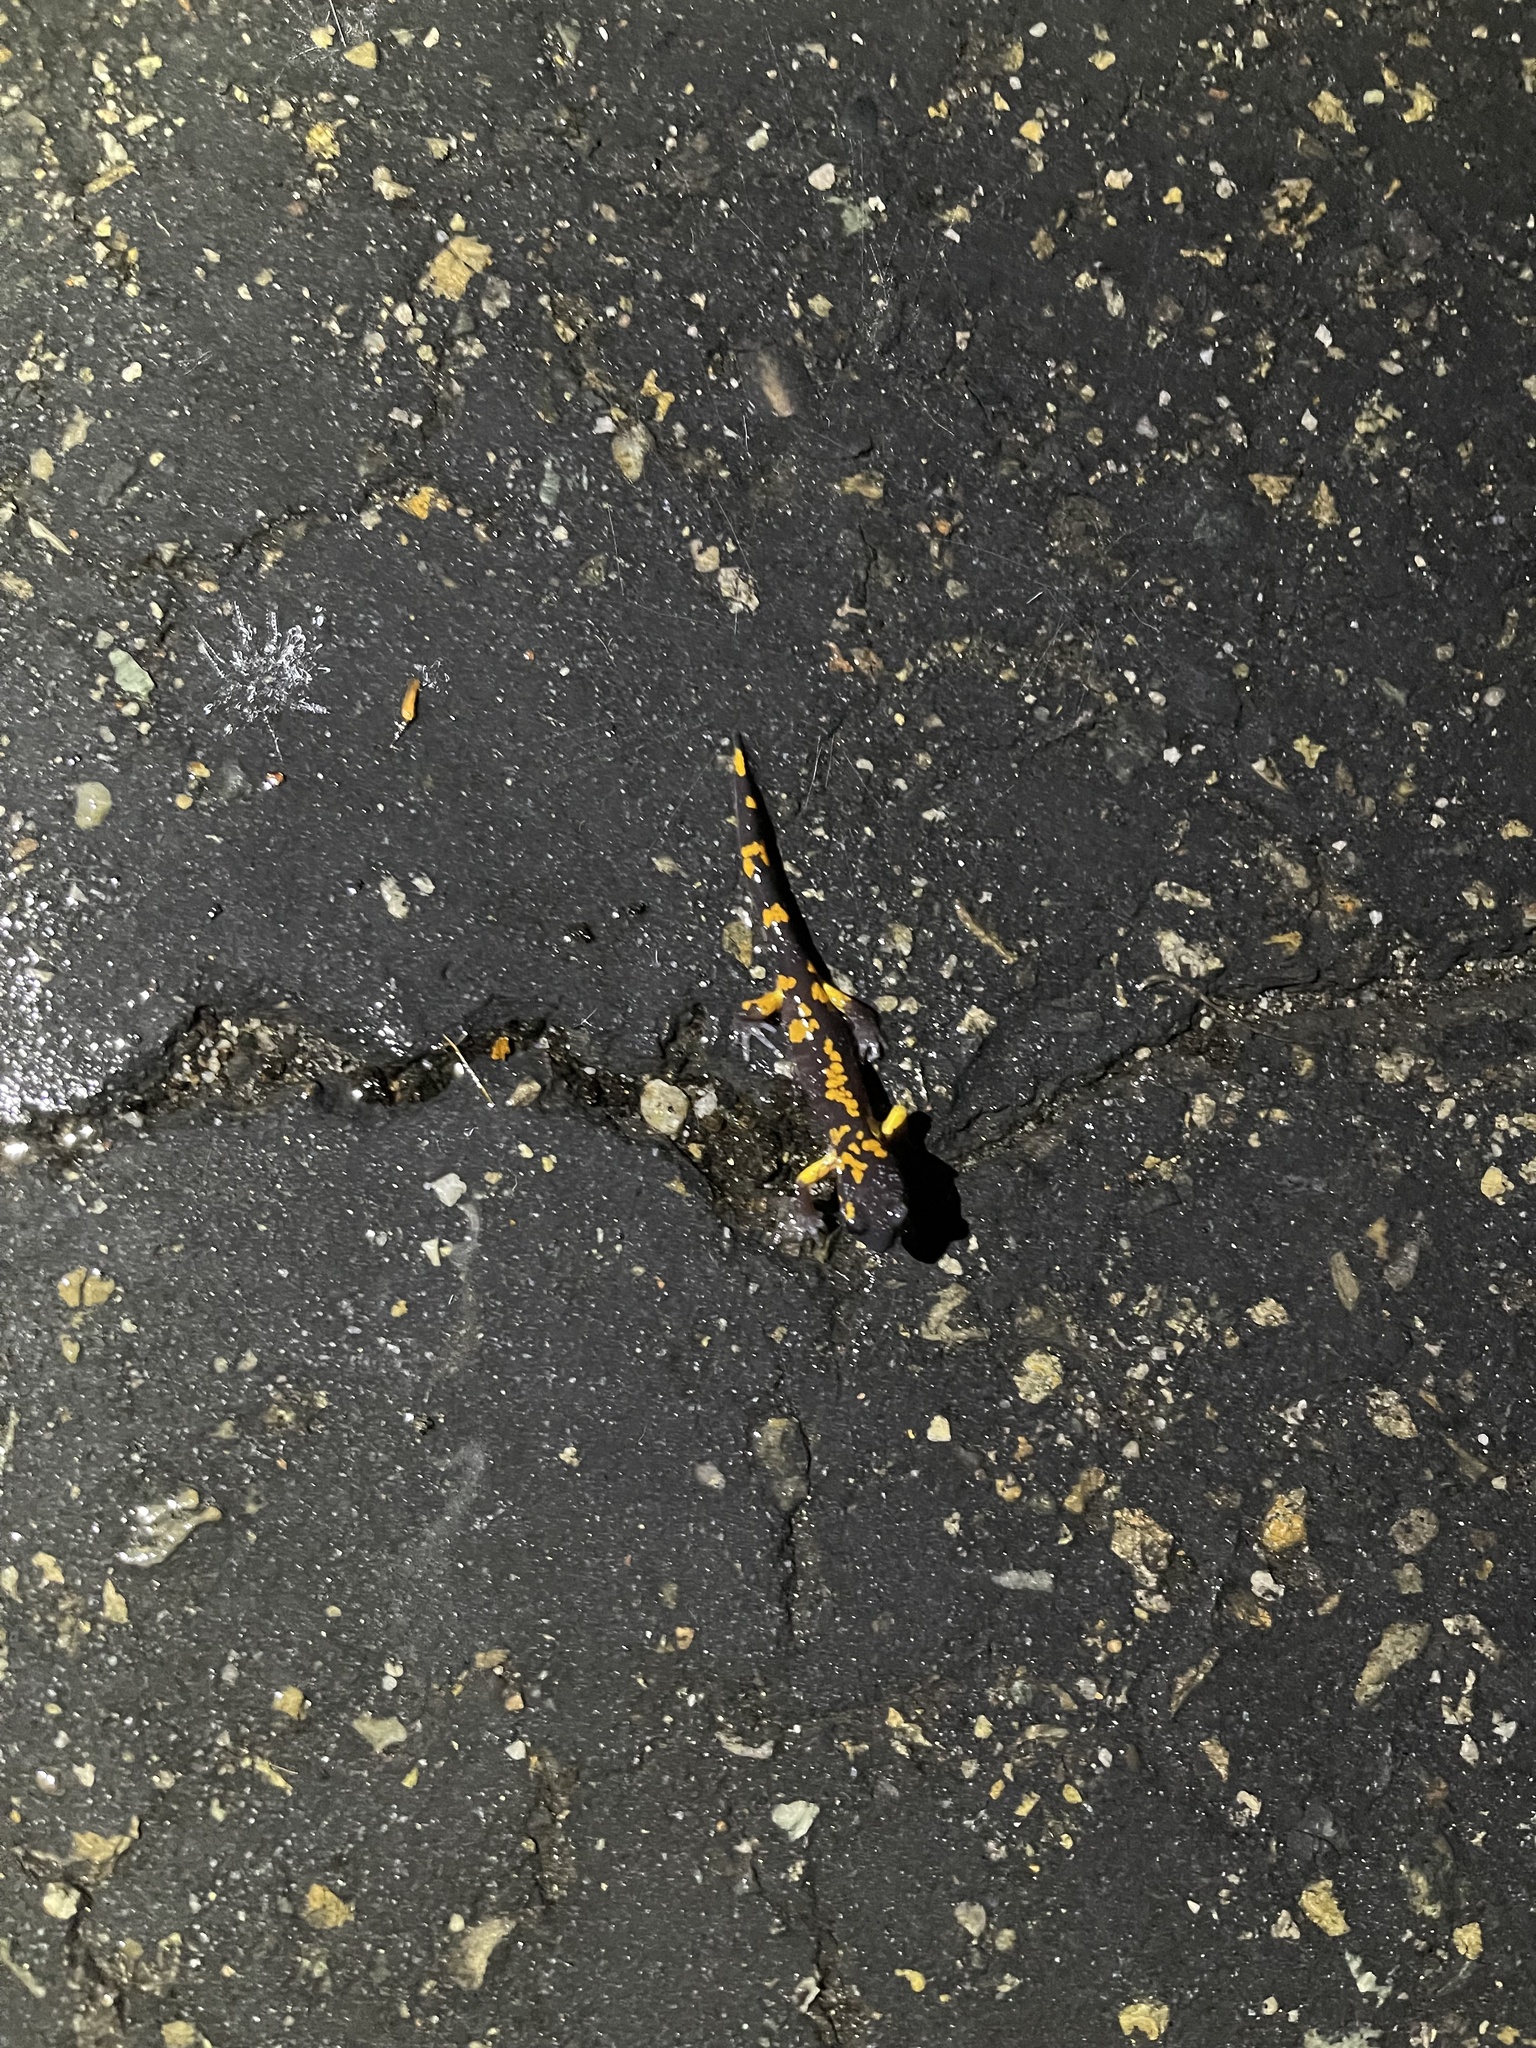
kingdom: Animalia
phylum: Chordata
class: Amphibia
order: Caudata
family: Plethodontidae
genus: Ensatina
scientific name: Ensatina eschscholtzii
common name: Ensatina
